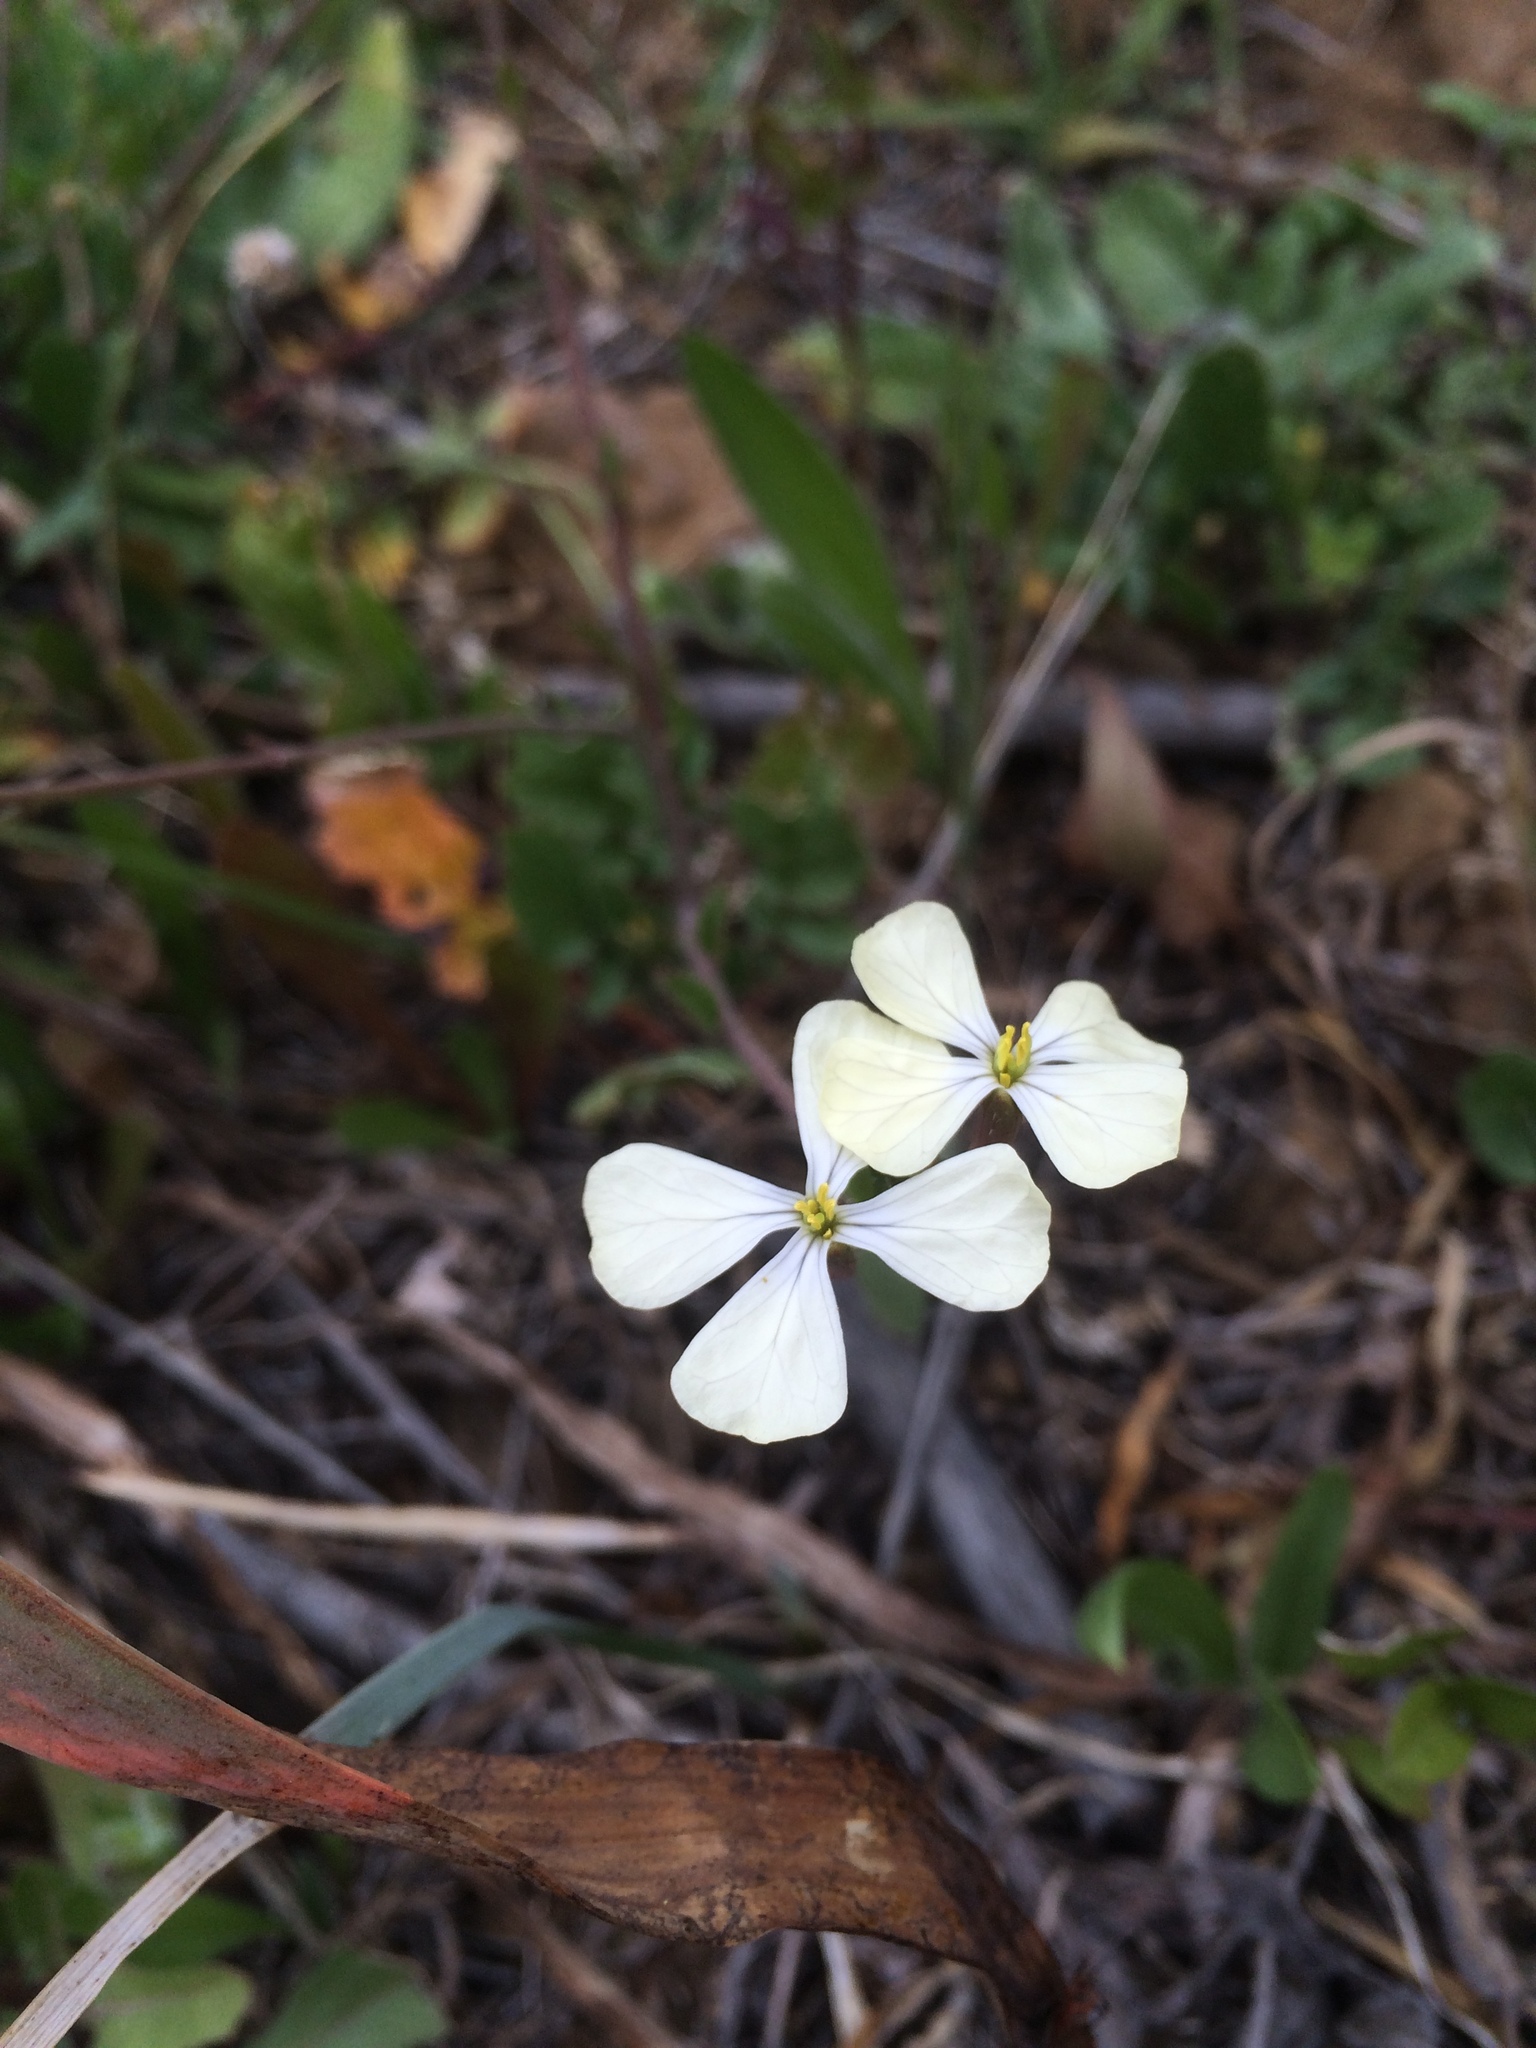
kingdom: Plantae
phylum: Tracheophyta
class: Magnoliopsida
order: Brassicales
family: Brassicaceae
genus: Raphanus
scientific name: Raphanus raphanistrum
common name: Wild radish
